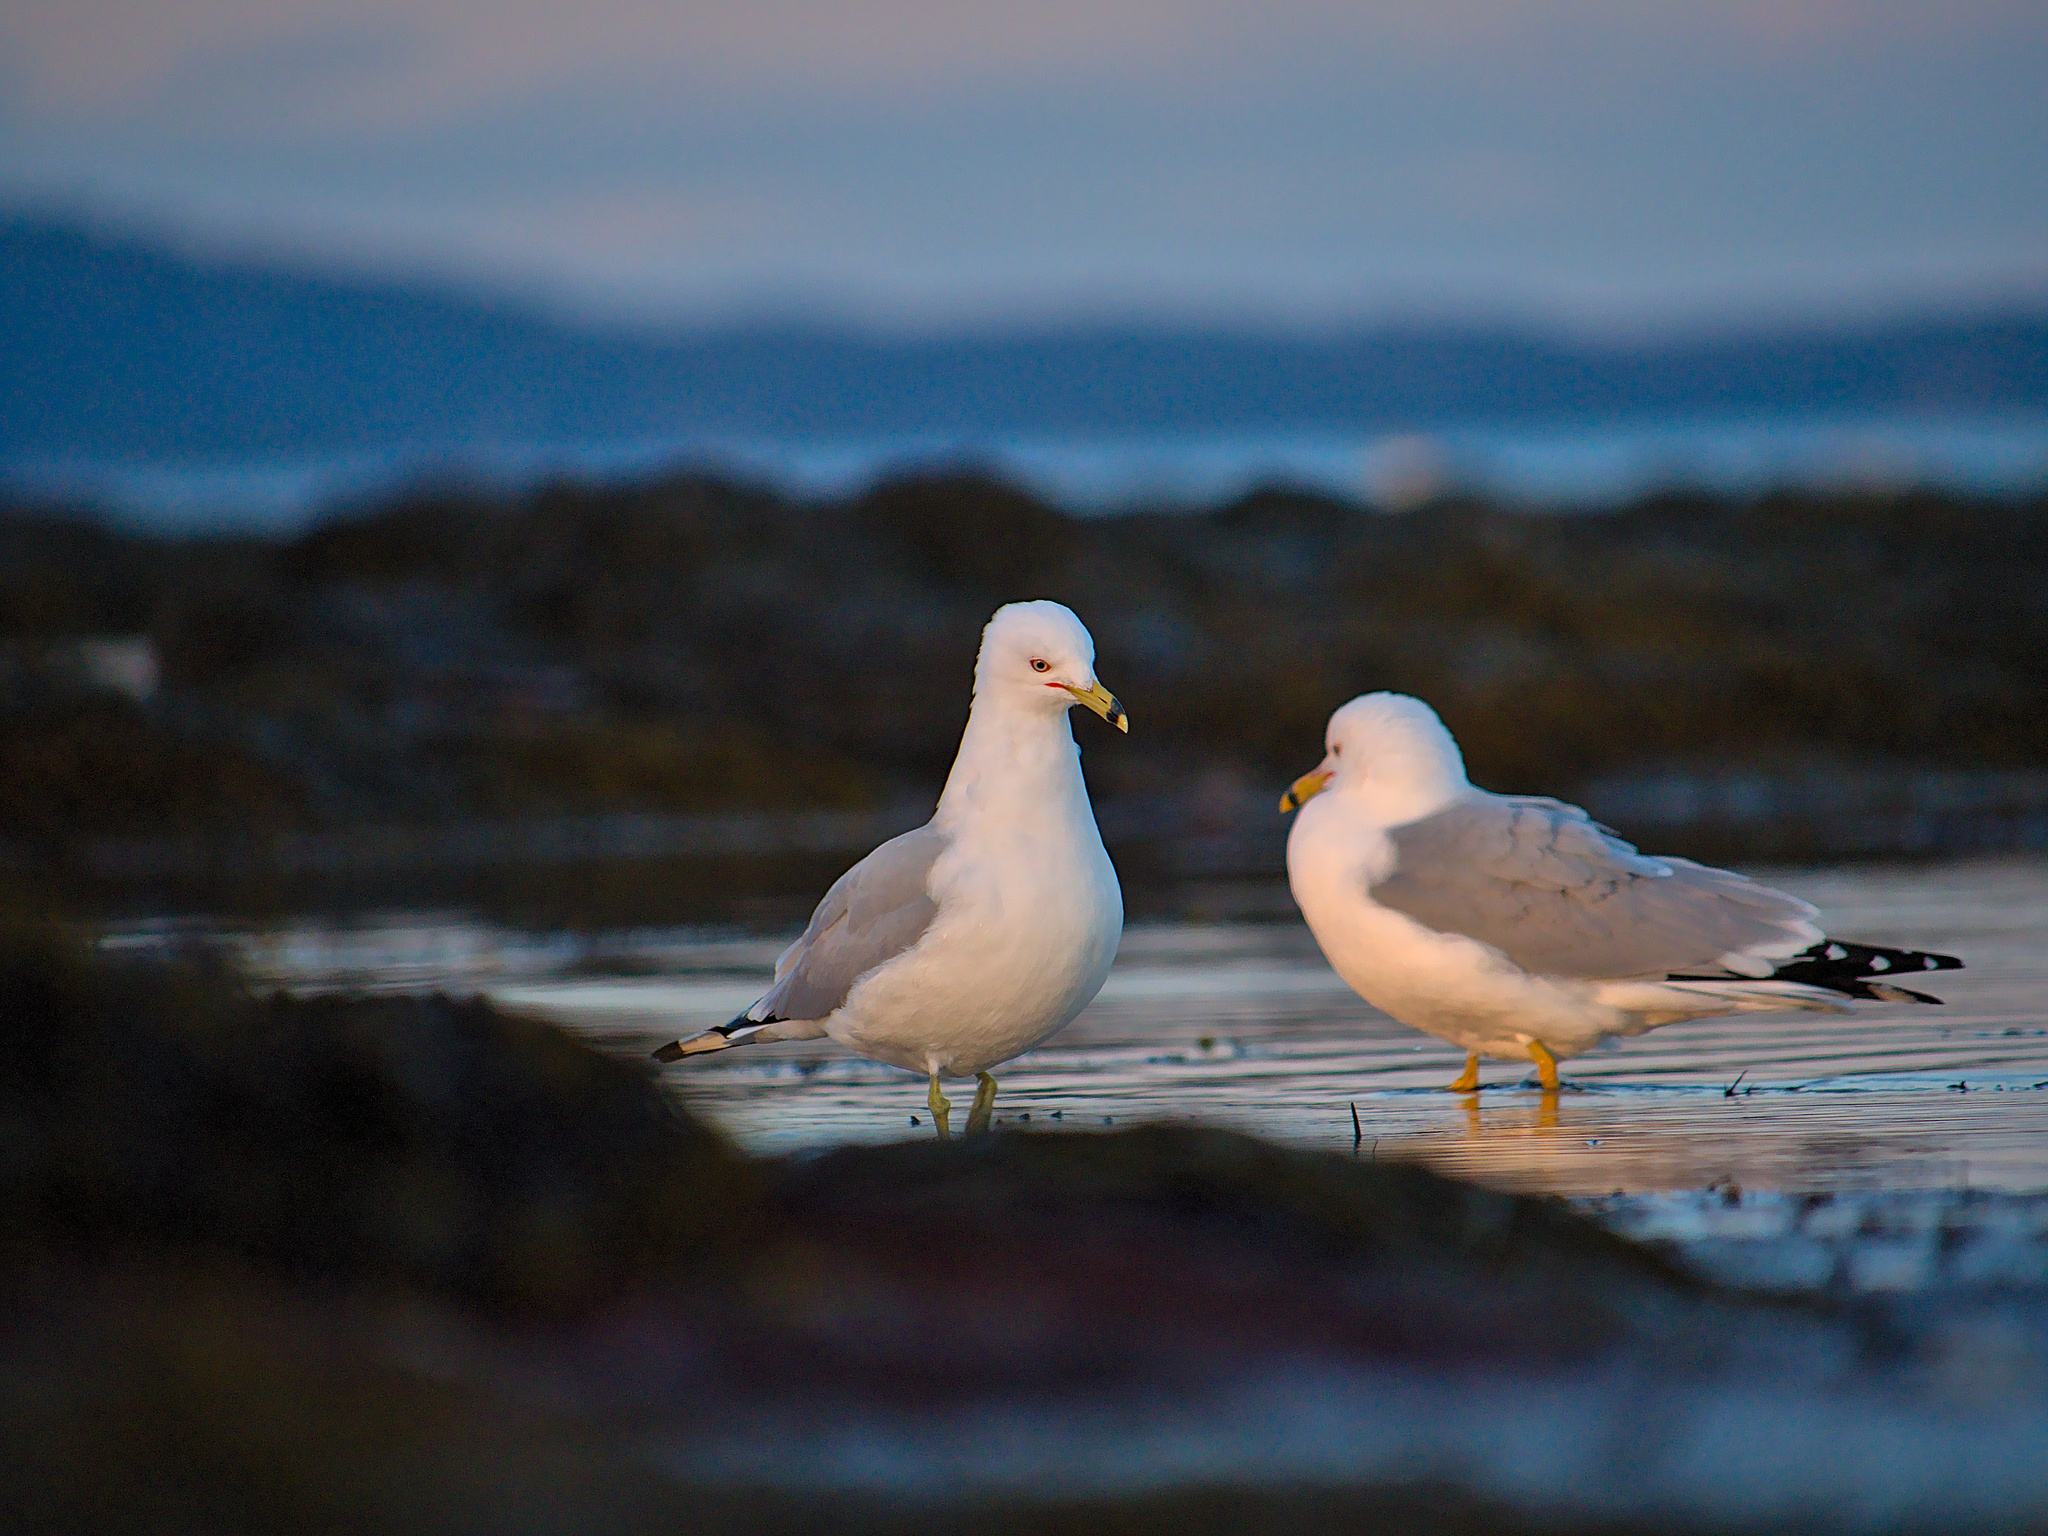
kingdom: Animalia
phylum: Chordata
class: Aves
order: Charadriiformes
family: Laridae
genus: Larus
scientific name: Larus delawarensis
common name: Ring-billed gull
